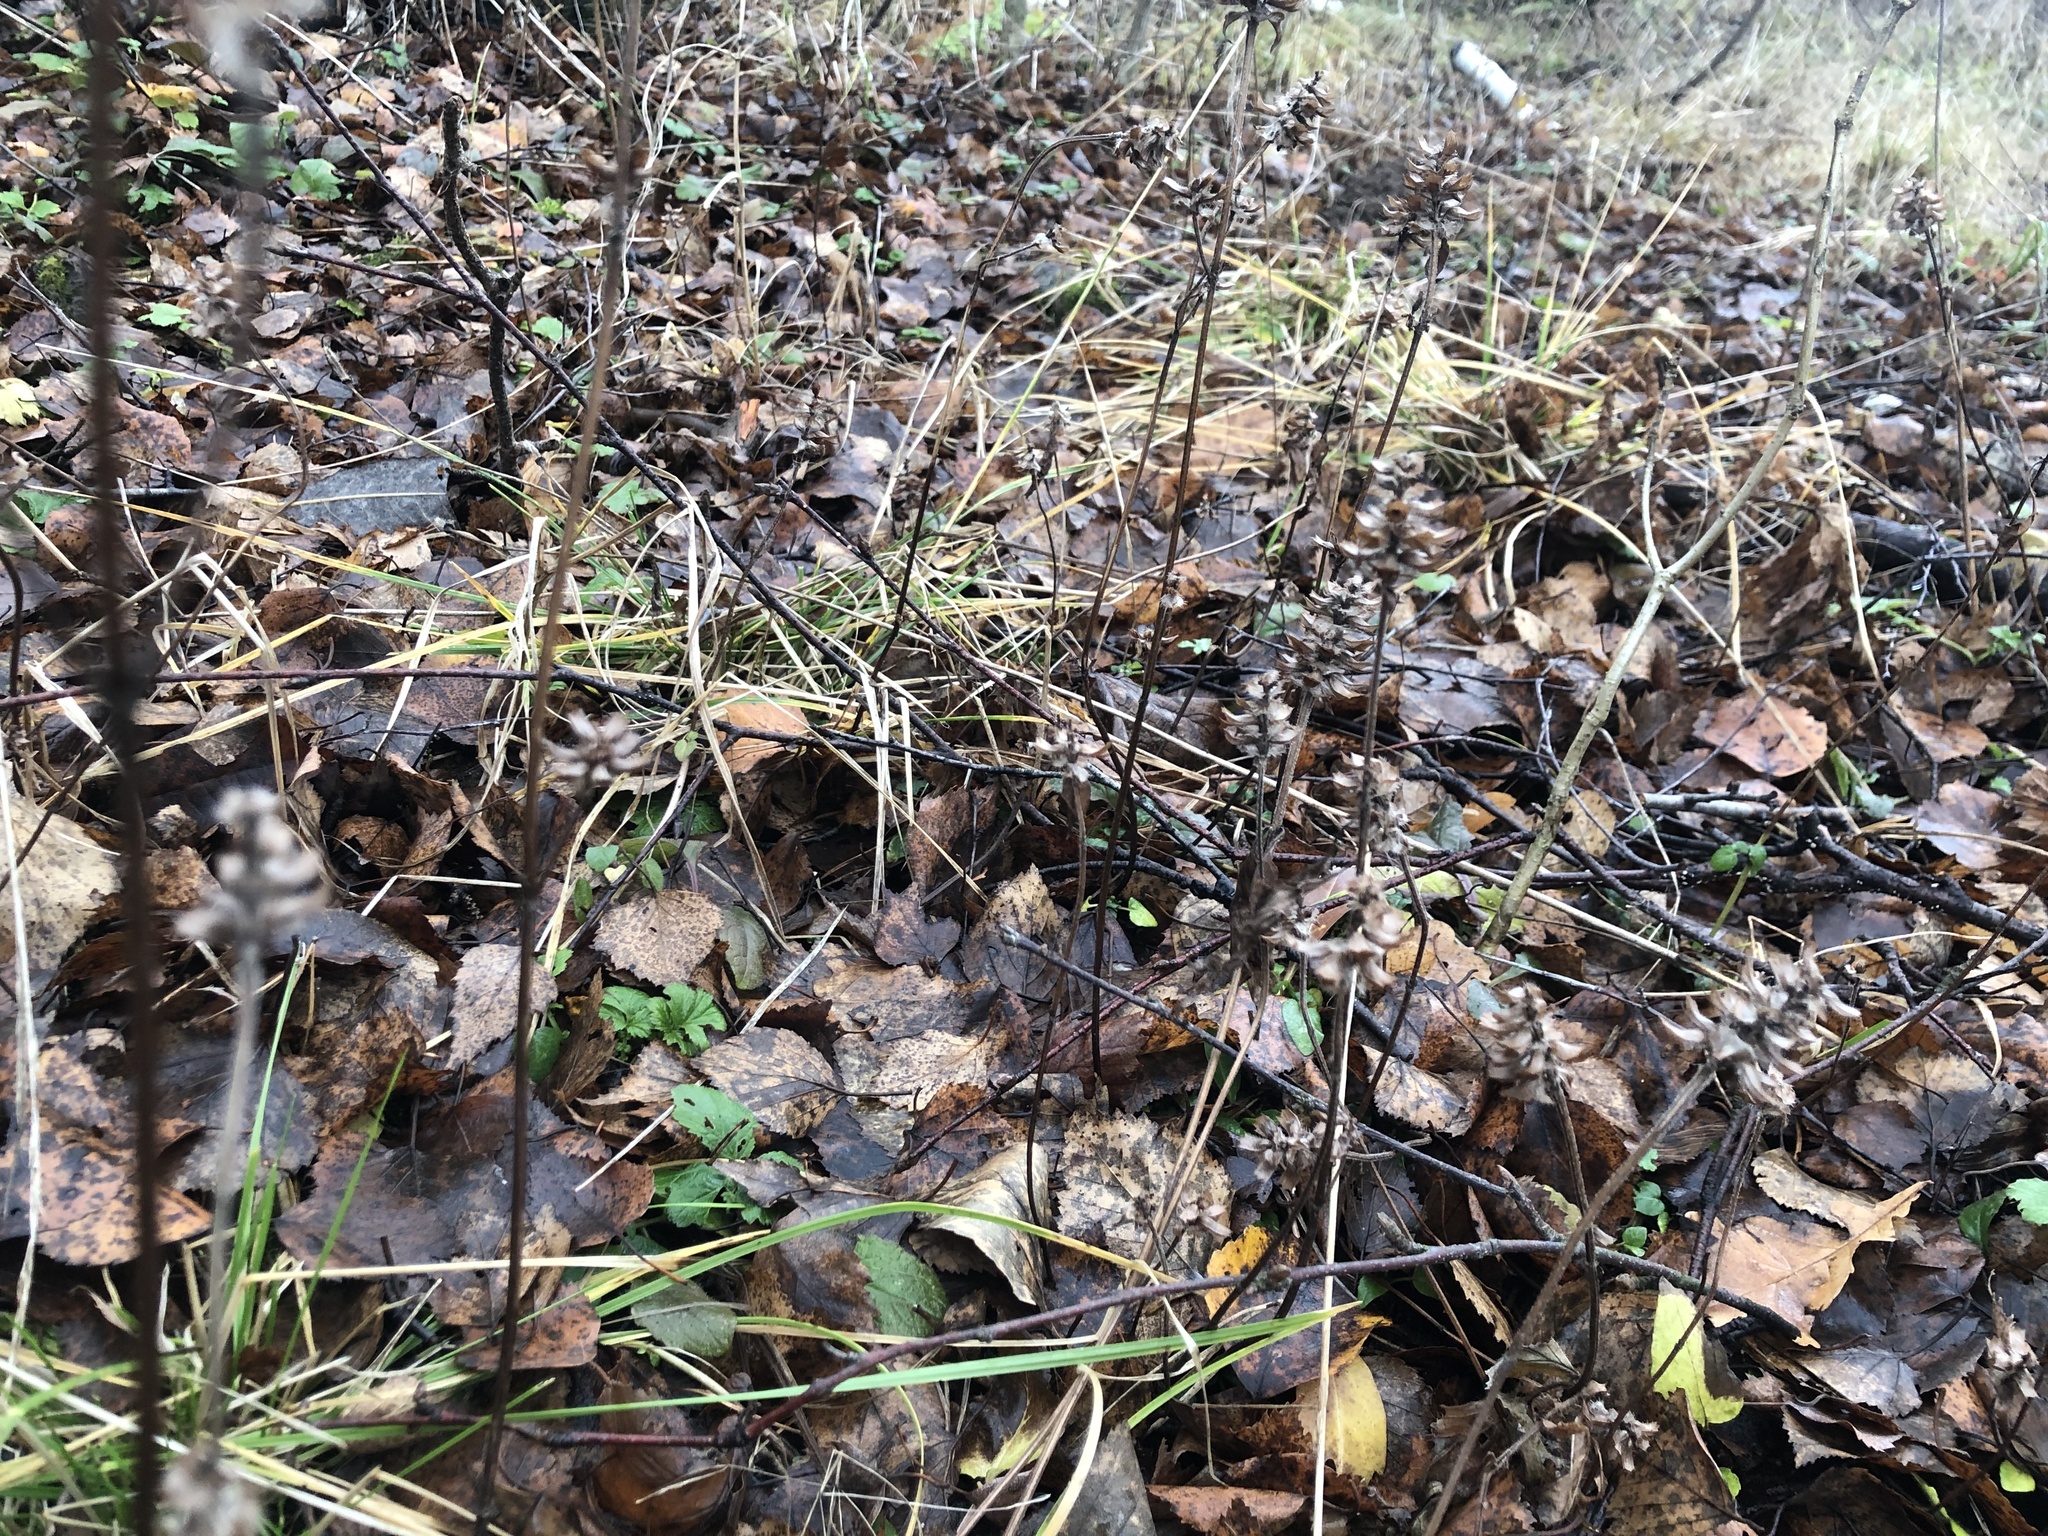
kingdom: Plantae
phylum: Tracheophyta
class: Magnoliopsida
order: Lamiales
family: Lamiaceae
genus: Prunella
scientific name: Prunella vulgaris
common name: Heal-all
